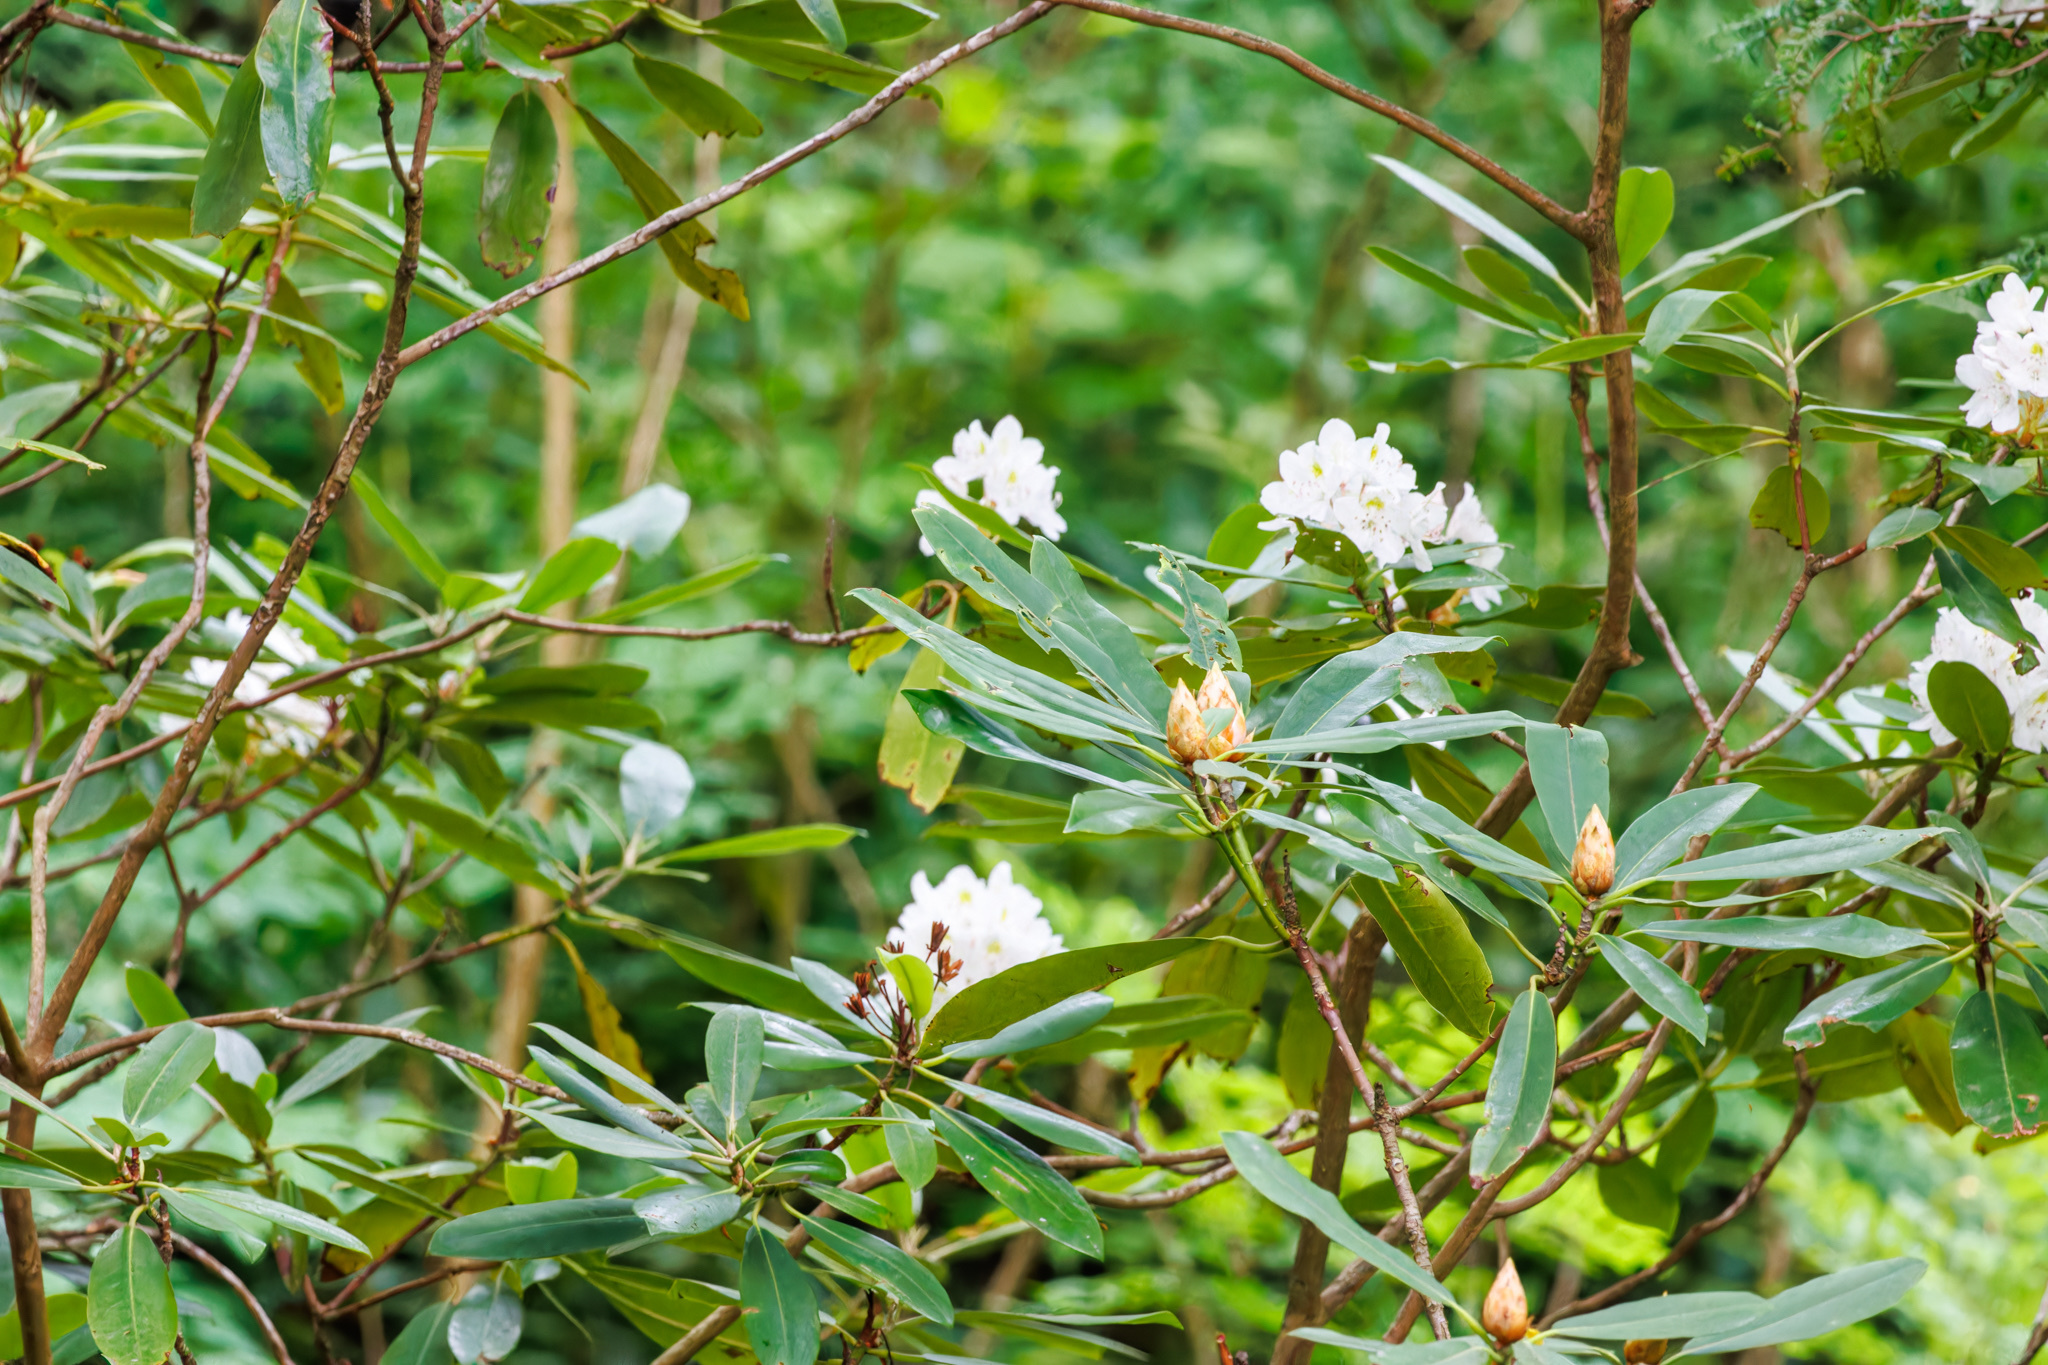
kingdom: Plantae
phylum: Tracheophyta
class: Magnoliopsida
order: Ericales
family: Ericaceae
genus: Rhododendron
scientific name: Rhododendron maximum
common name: Great rhododendron
